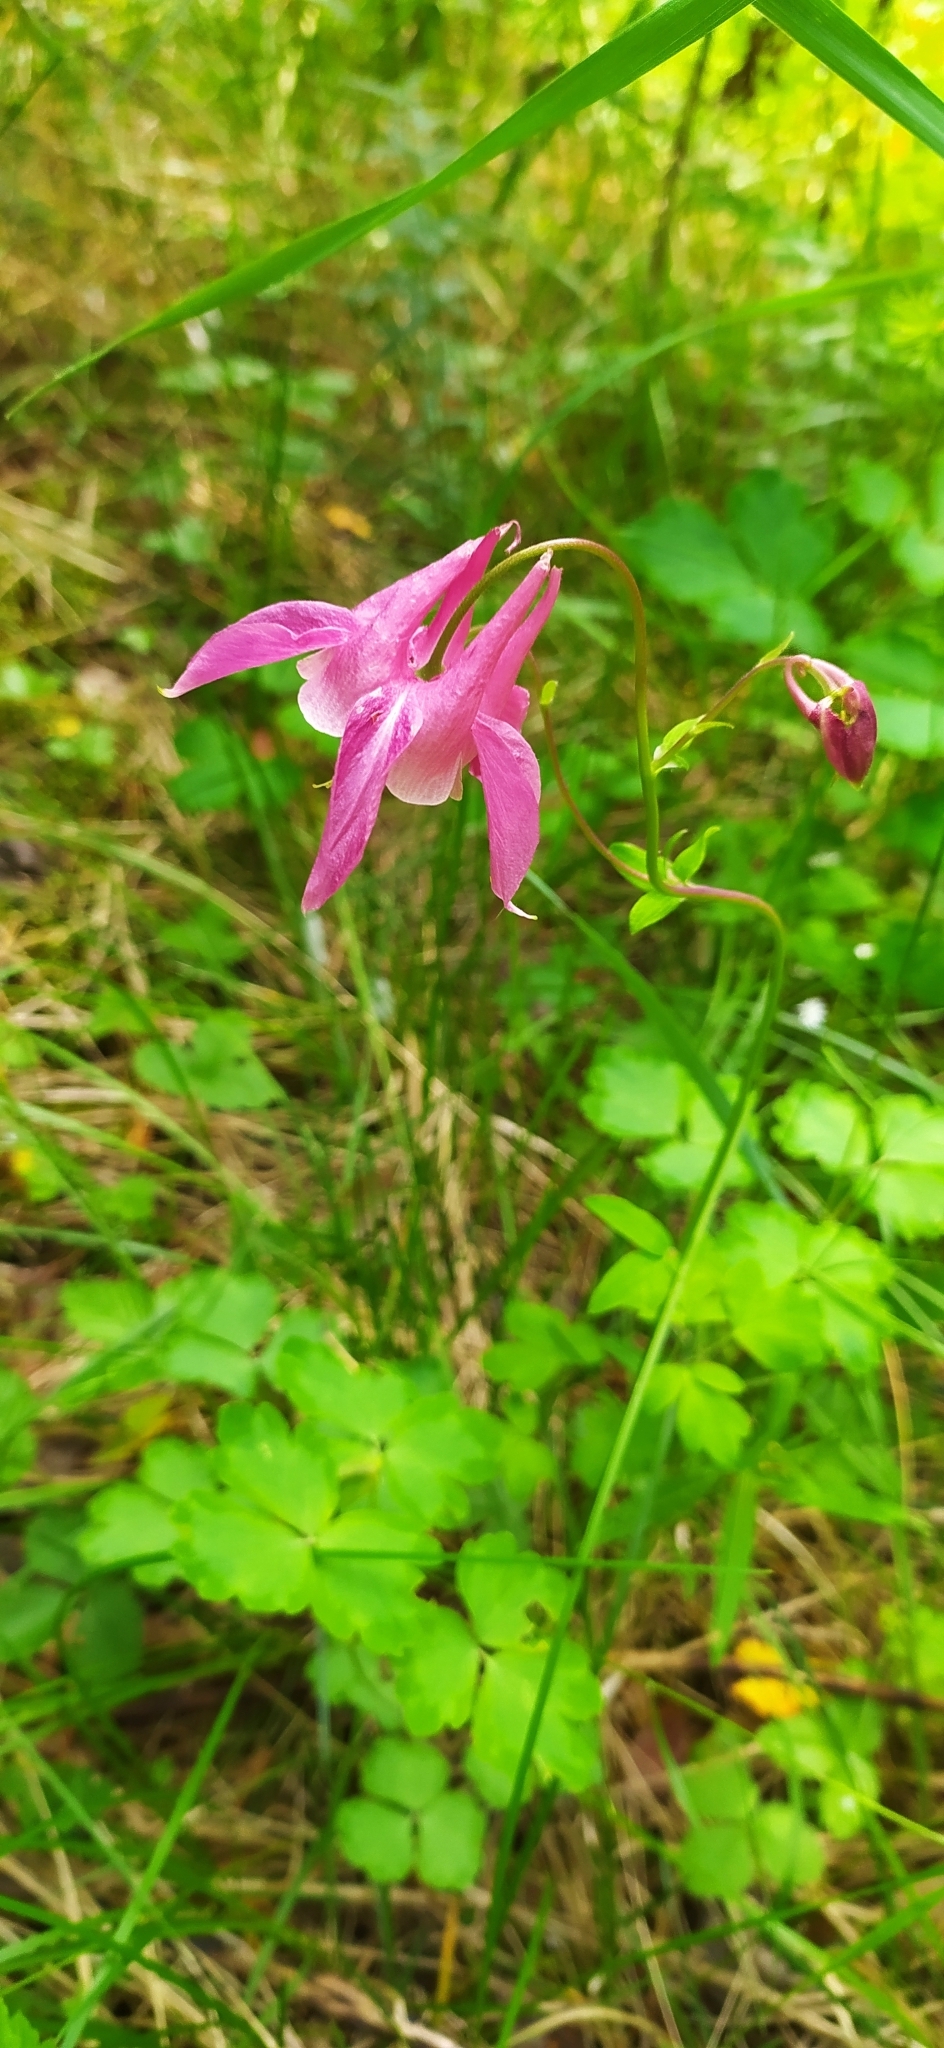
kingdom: Plantae
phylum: Tracheophyta
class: Magnoliopsida
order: Ranunculales
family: Ranunculaceae
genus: Aquilegia
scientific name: Aquilegia vulgaris
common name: Columbine
